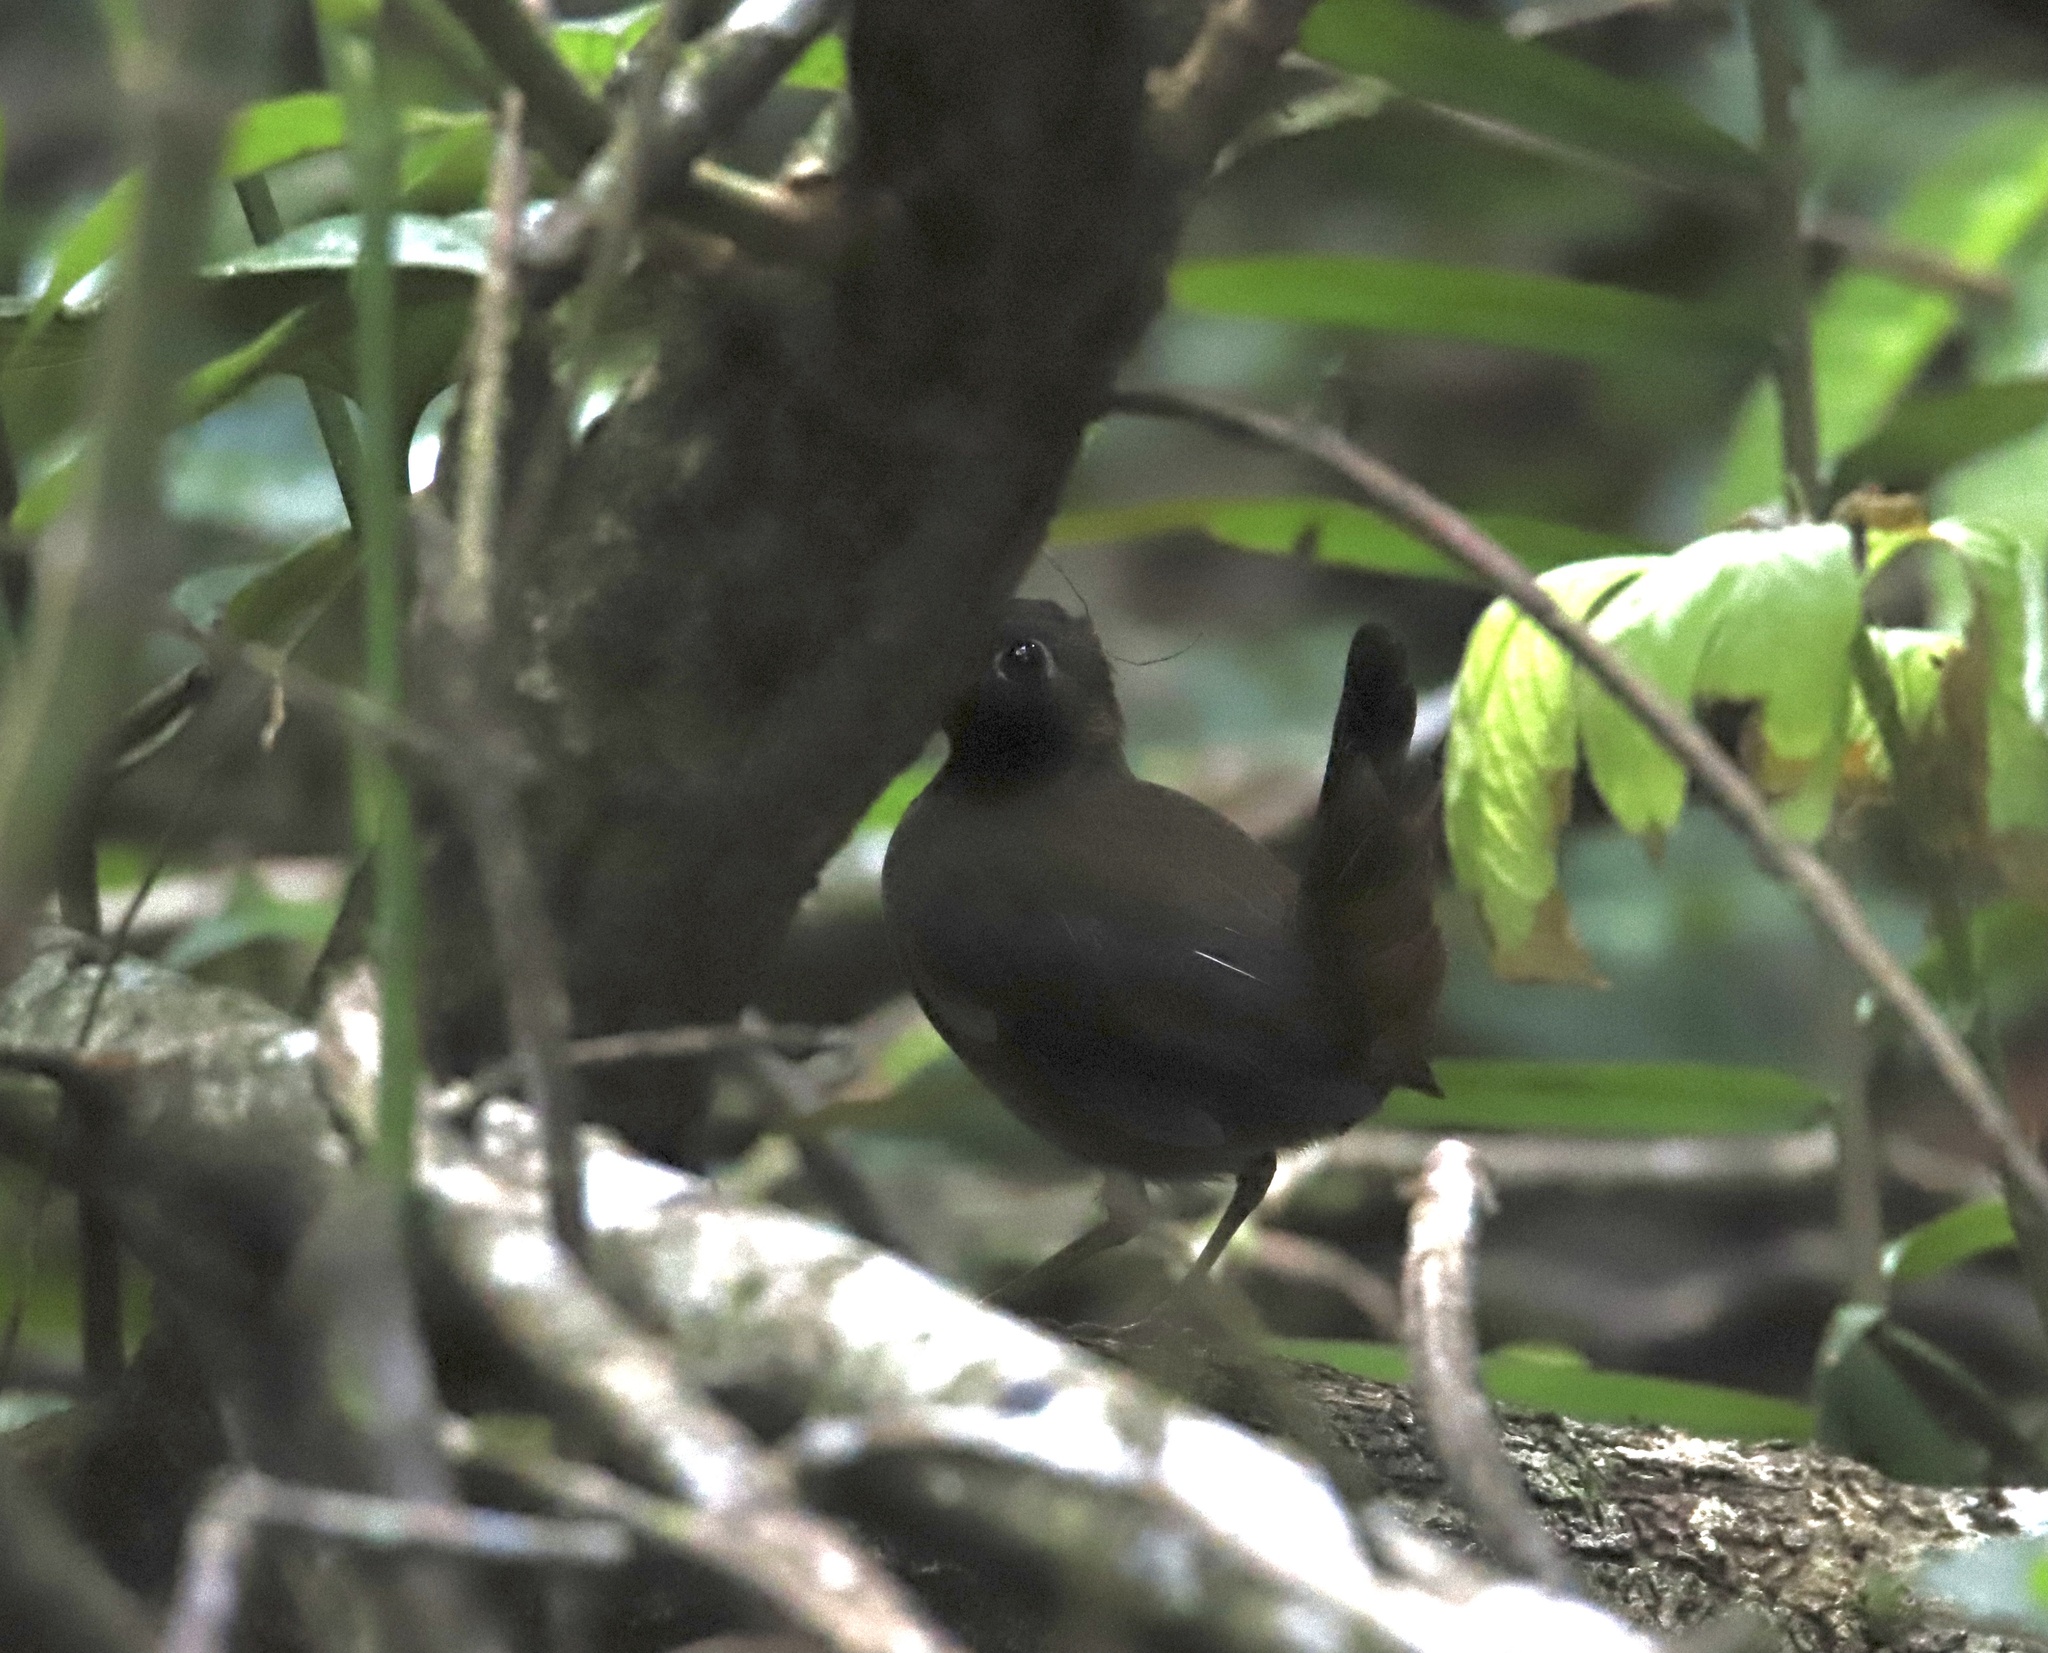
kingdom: Animalia
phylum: Chordata
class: Aves
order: Passeriformes
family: Formicariidae
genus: Formicarius
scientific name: Formicarius analis
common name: Black-faced antthrush
